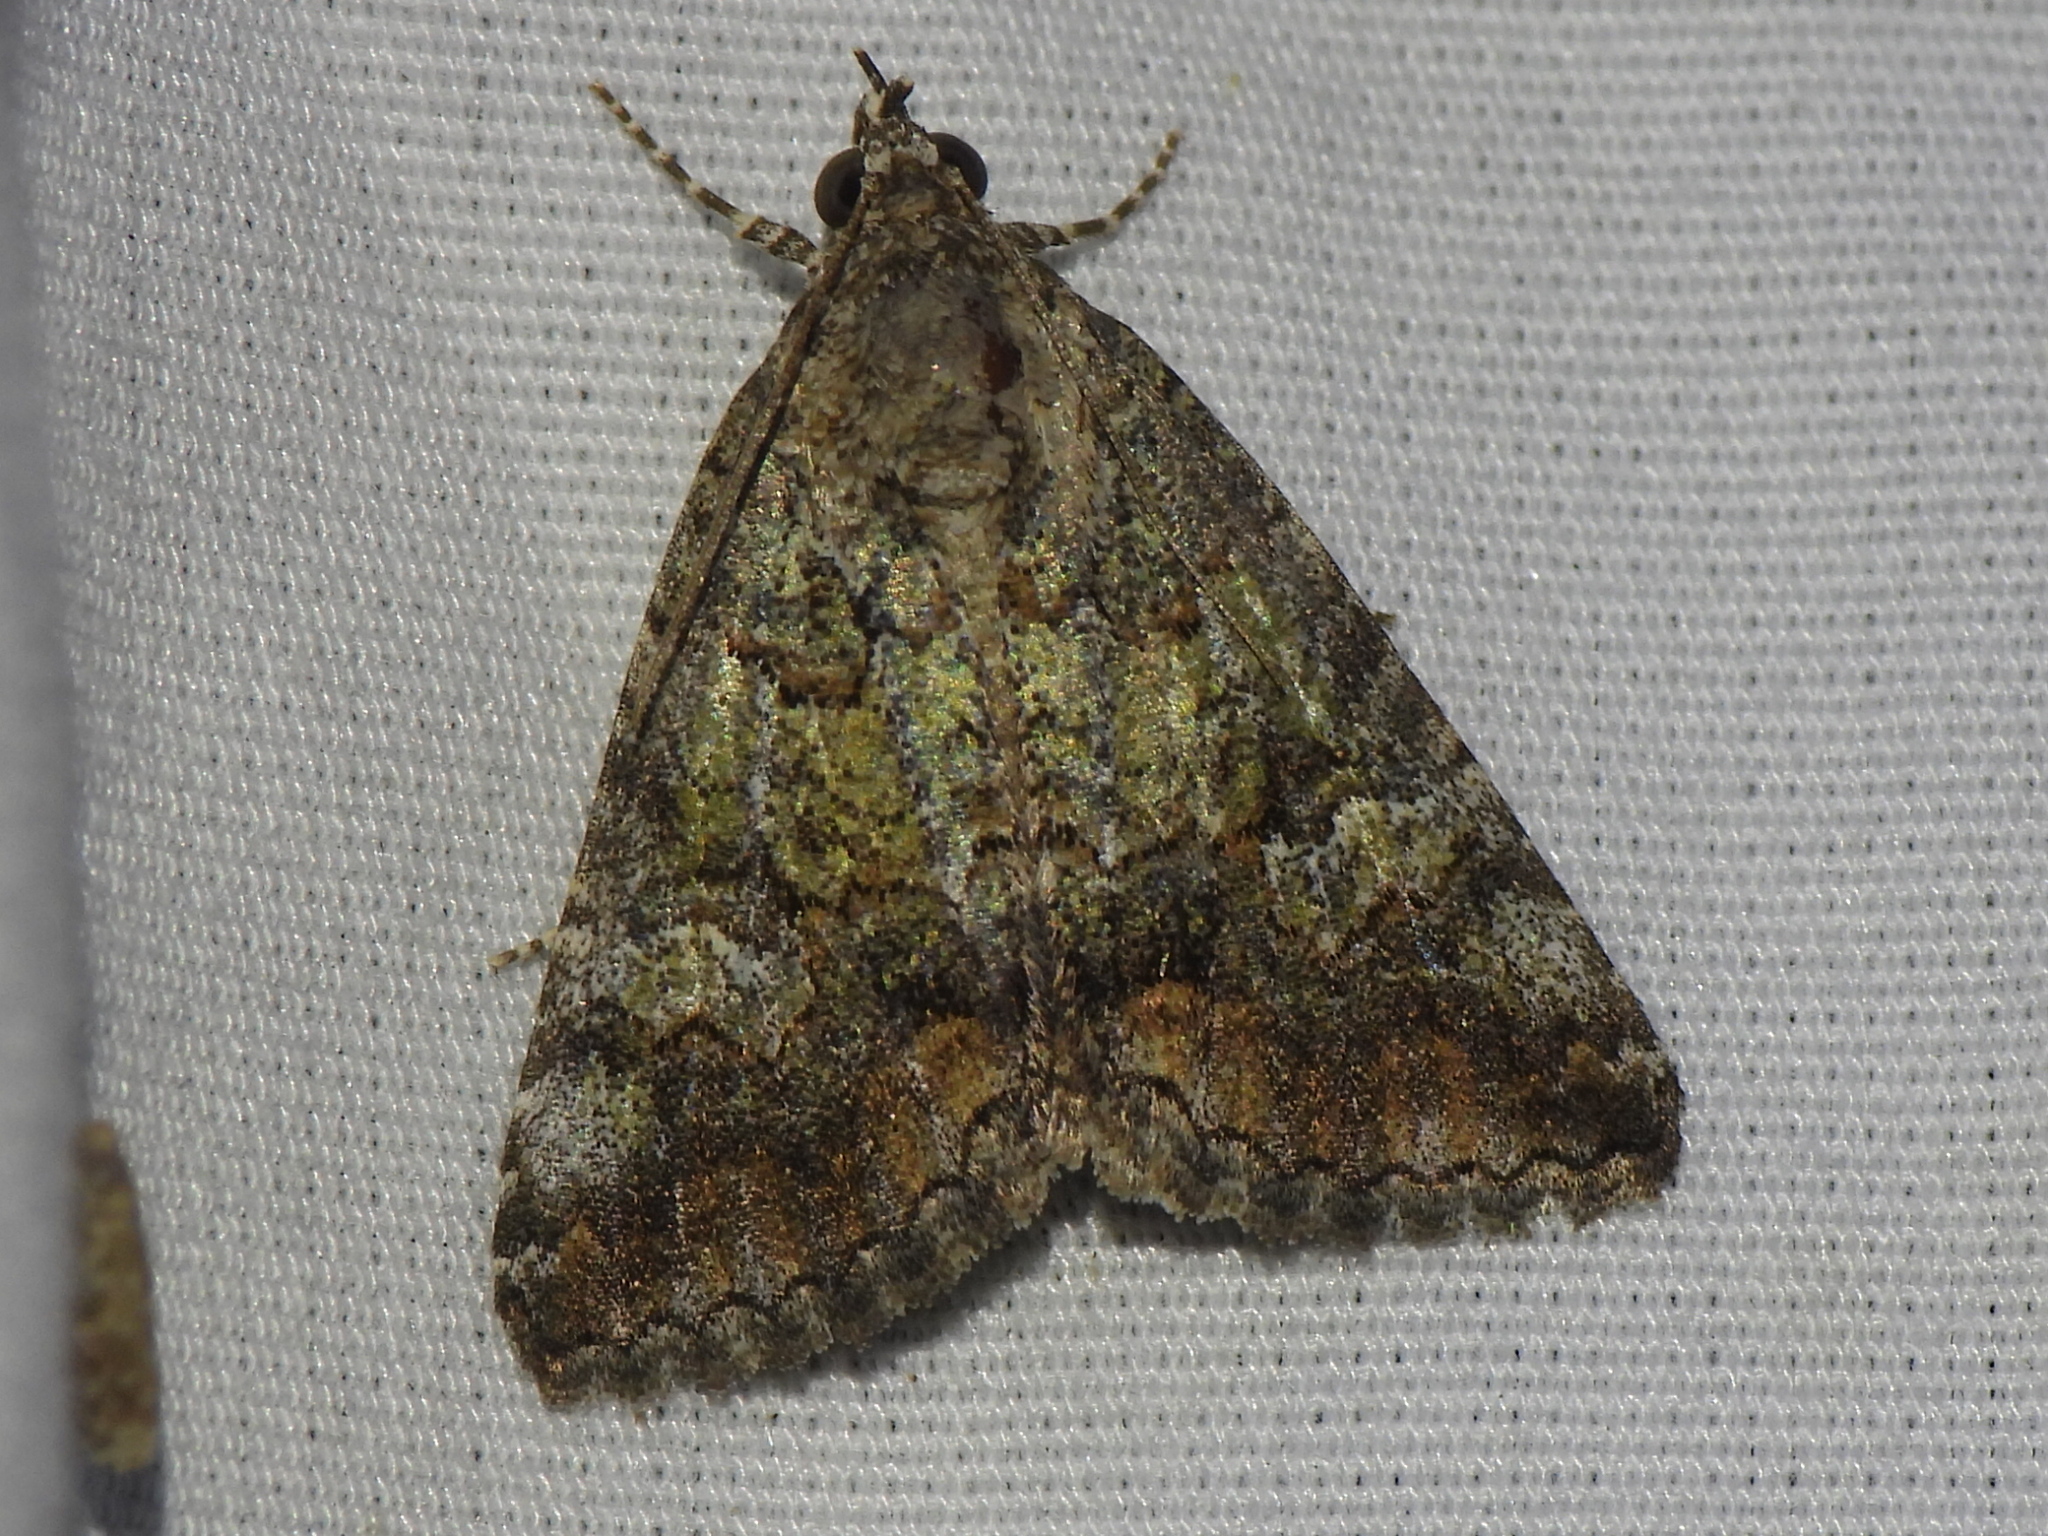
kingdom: Animalia
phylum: Arthropoda
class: Insecta
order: Lepidoptera
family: Erebidae
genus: Eubolina
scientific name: Eubolina impartialis
